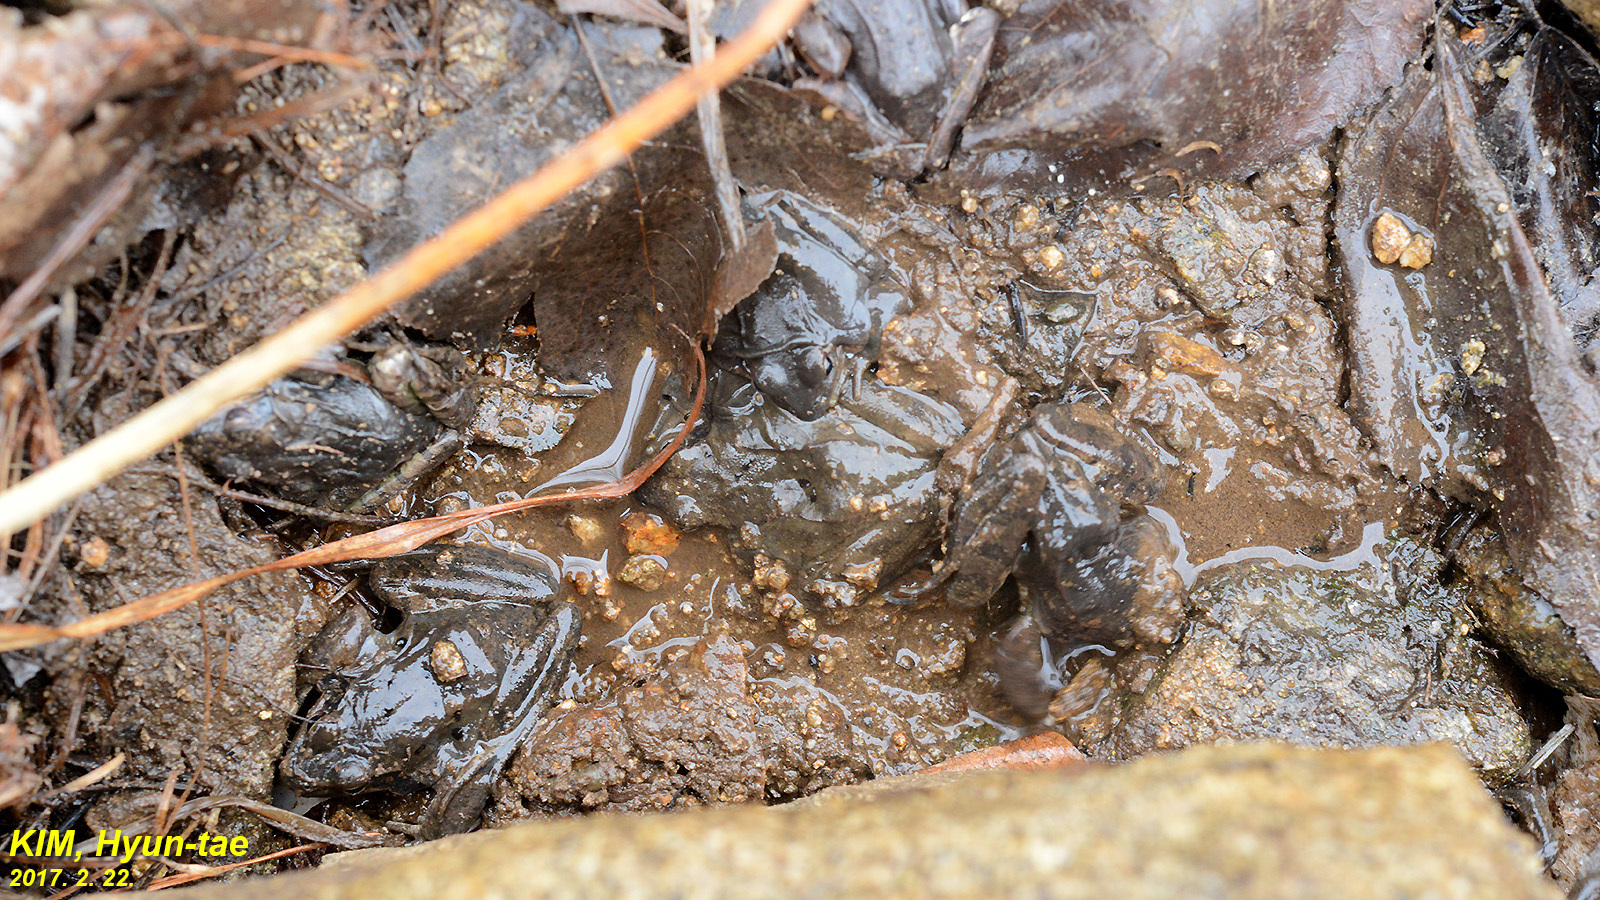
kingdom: Animalia
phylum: Chordata
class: Amphibia
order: Anura
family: Ranidae
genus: Rana
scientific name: Rana uenoi
